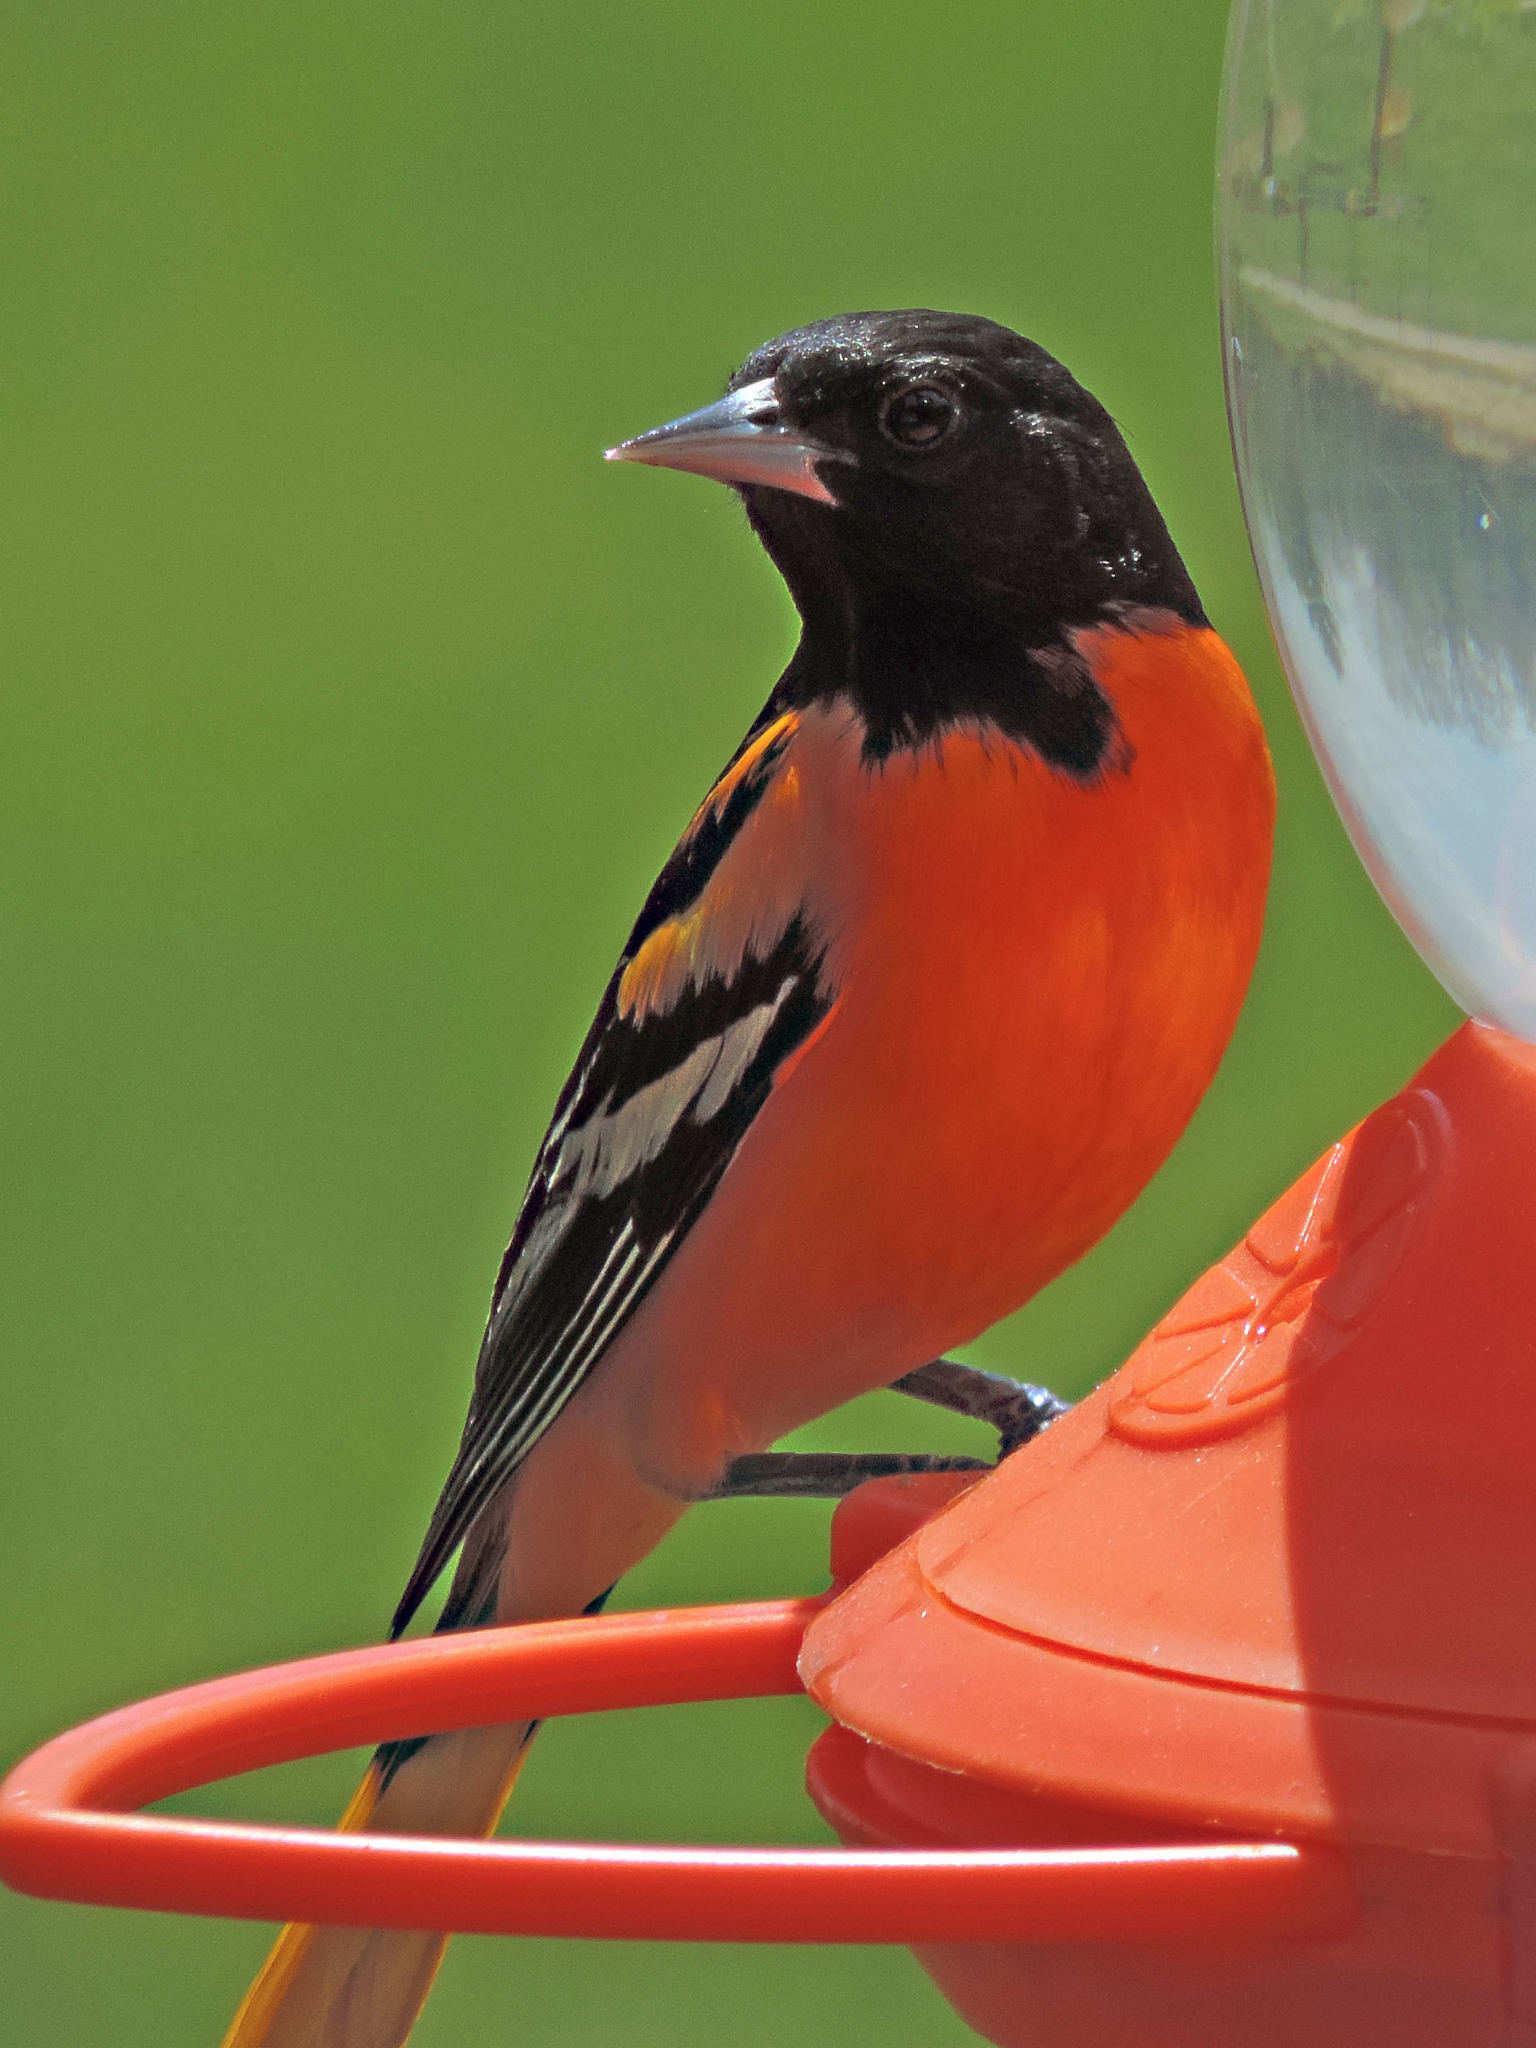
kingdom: Animalia
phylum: Chordata
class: Aves
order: Passeriformes
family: Icteridae
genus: Icterus
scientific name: Icterus galbula
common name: Baltimore oriole
